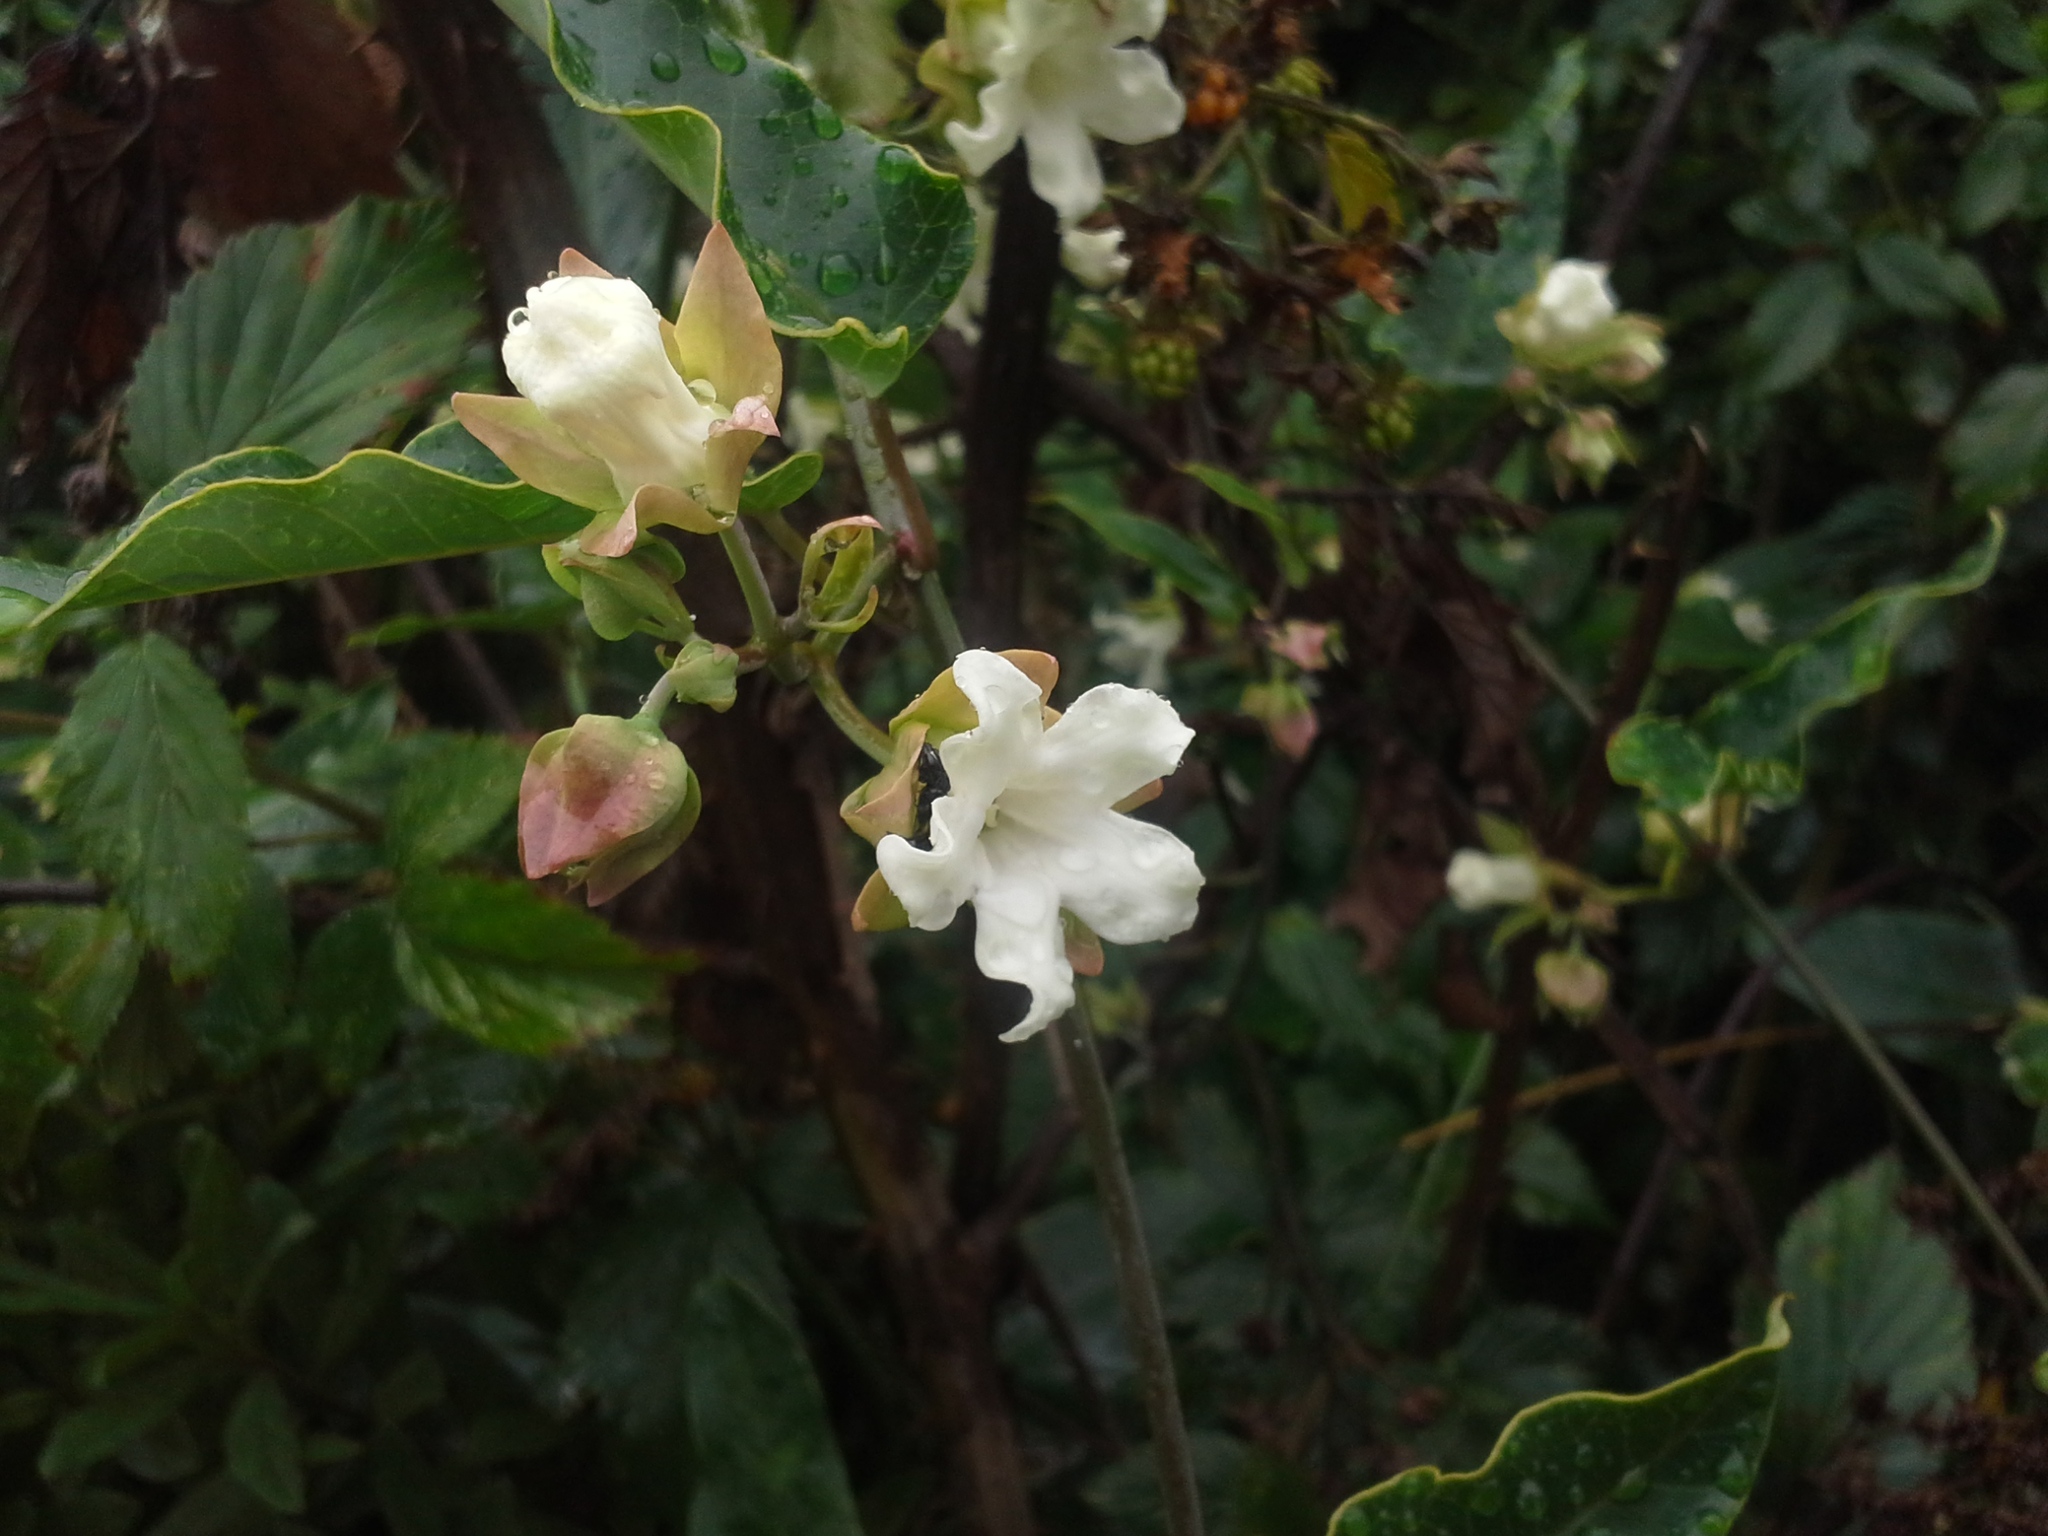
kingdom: Plantae
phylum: Tracheophyta
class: Magnoliopsida
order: Gentianales
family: Apocynaceae
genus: Araujia
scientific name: Araujia sericifera
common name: White bladderflower
